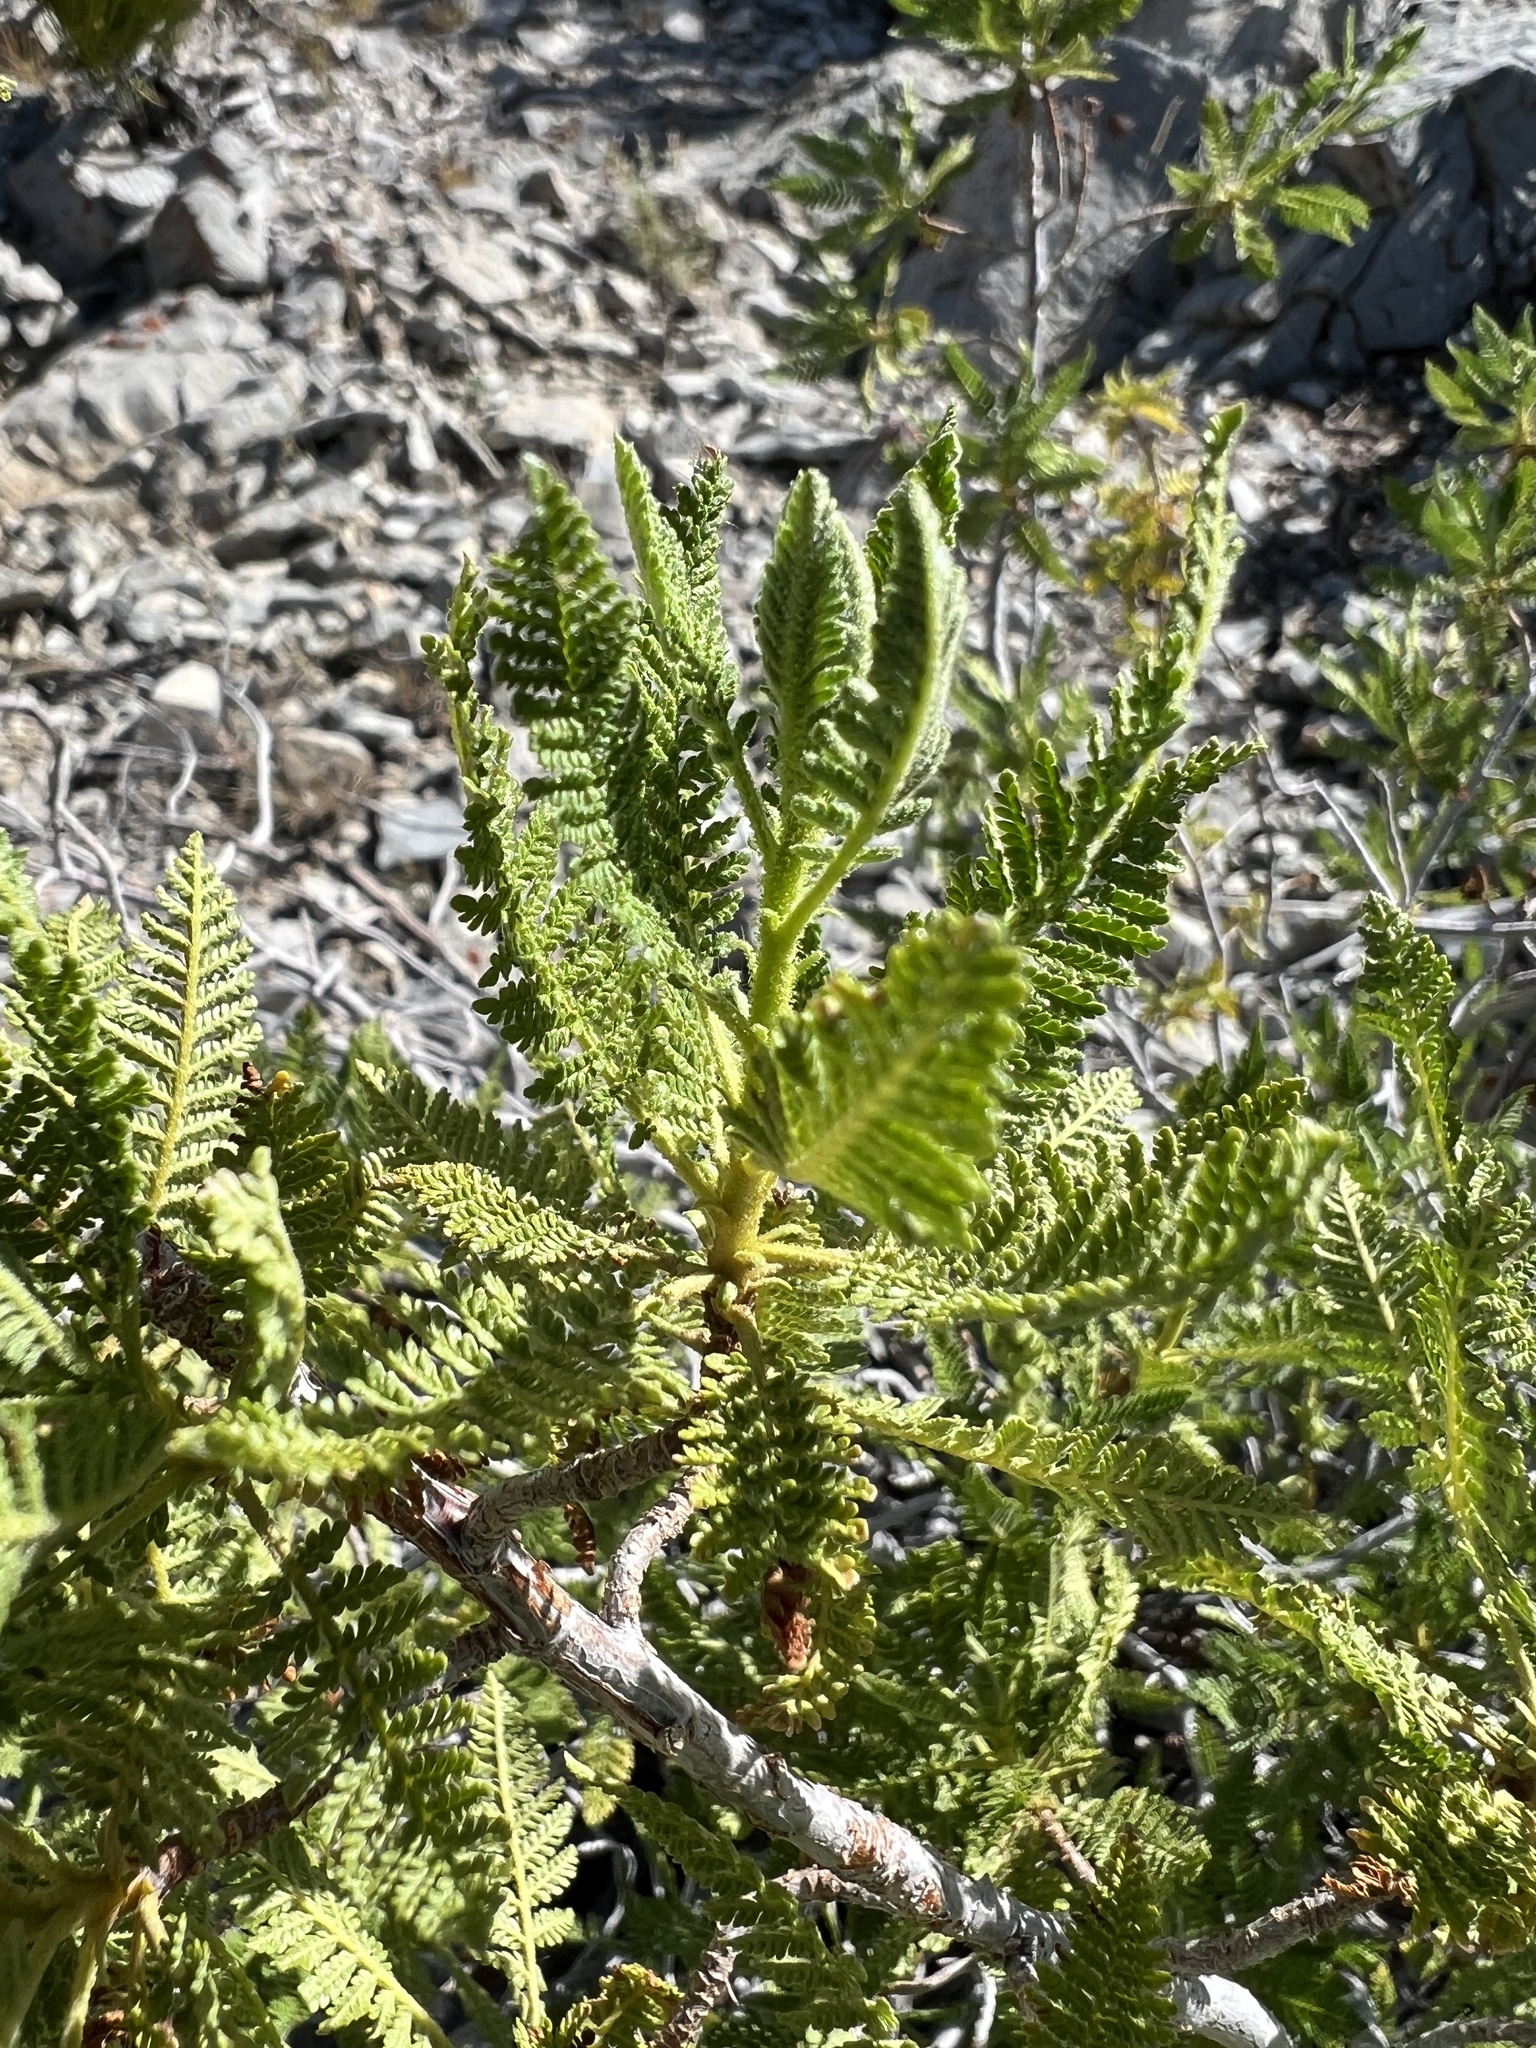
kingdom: Plantae
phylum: Tracheophyta
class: Magnoliopsida
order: Rosales
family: Rosaceae
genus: Chamaebatiaria
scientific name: Chamaebatiaria millefolium
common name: Fernbush
